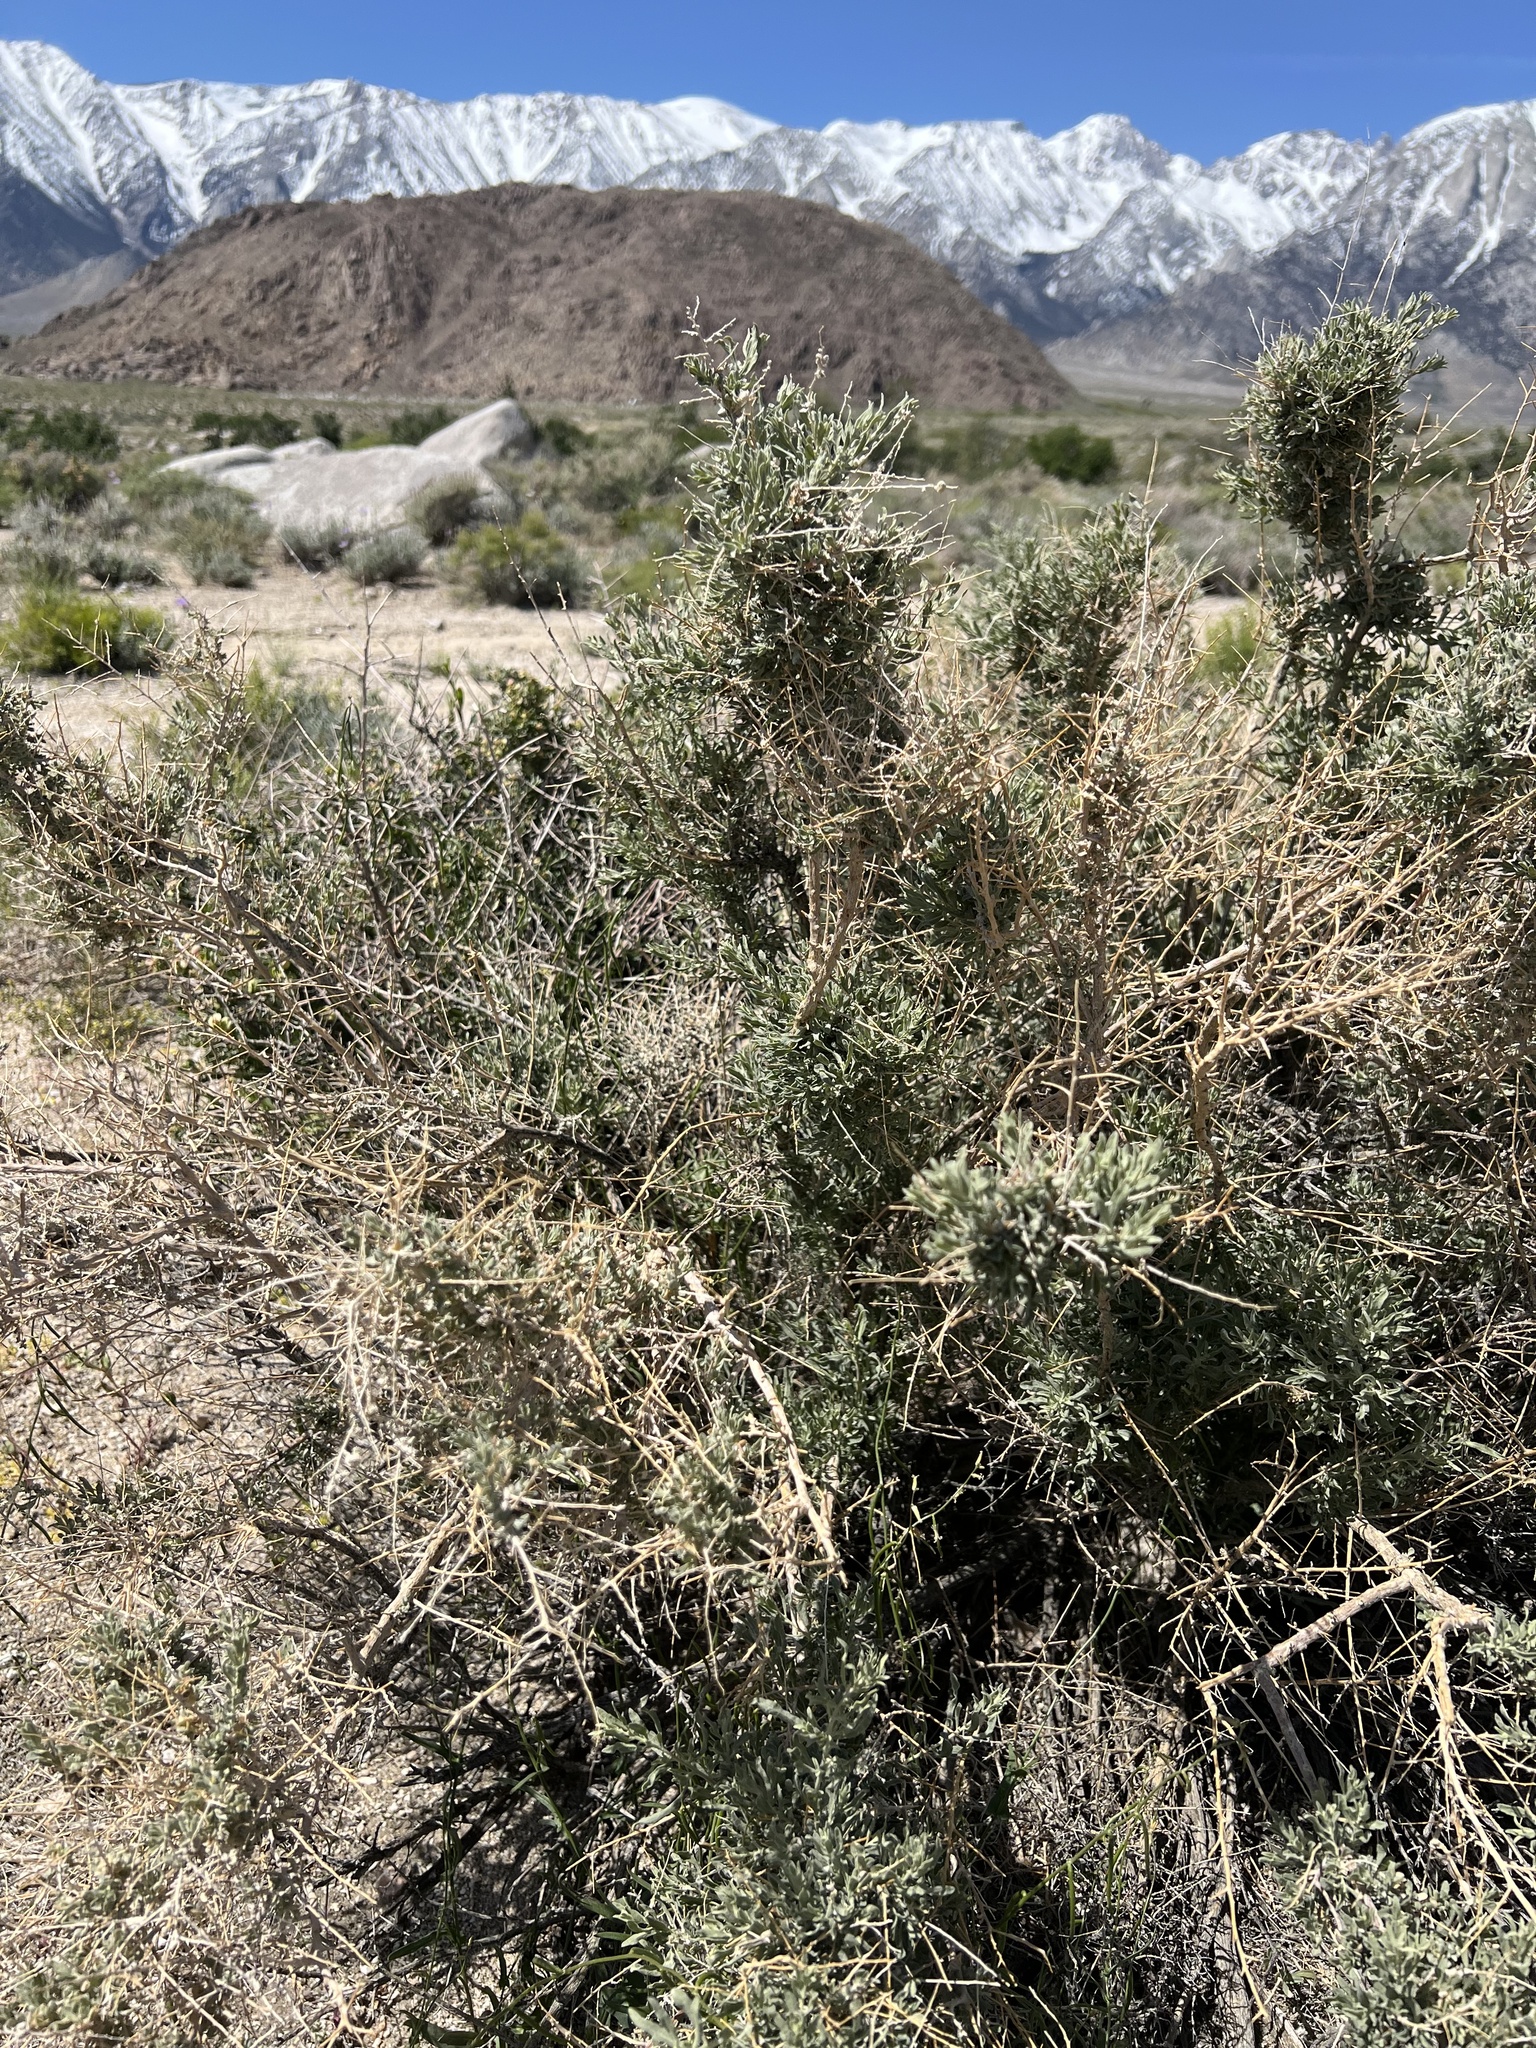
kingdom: Plantae
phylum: Tracheophyta
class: Magnoliopsida
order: Caryophyllales
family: Amaranthaceae
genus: Atriplex
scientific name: Atriplex canescens
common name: Four-wing saltbush
